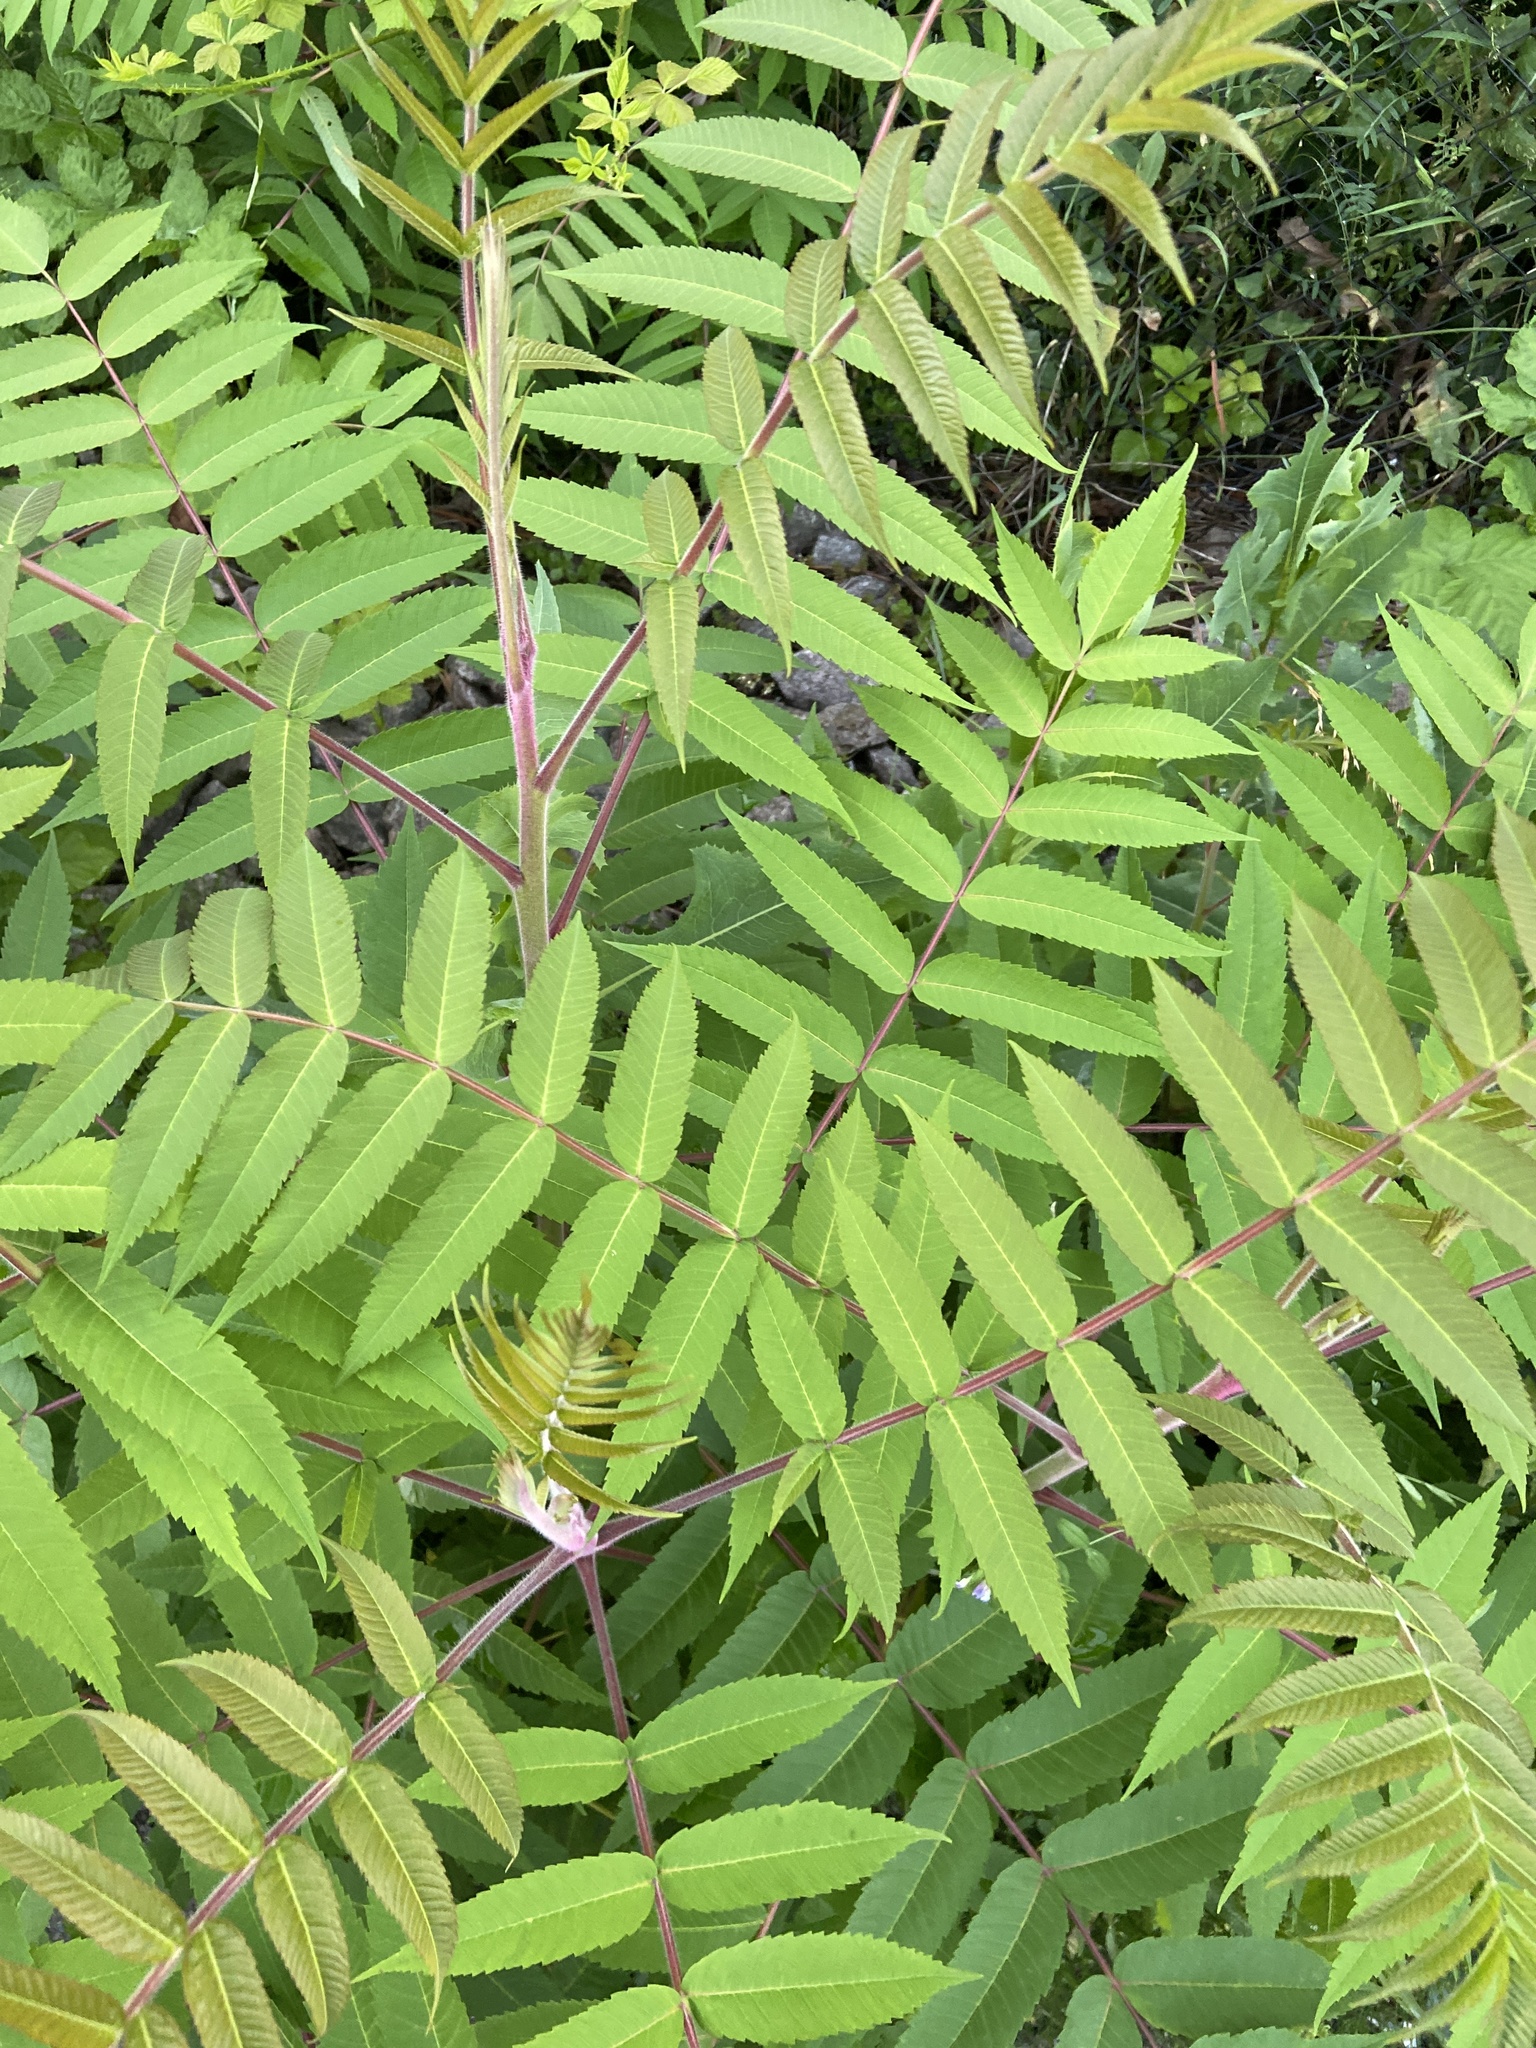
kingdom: Plantae
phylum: Tracheophyta
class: Magnoliopsida
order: Sapindales
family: Anacardiaceae
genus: Rhus
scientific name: Rhus typhina
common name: Staghorn sumac
